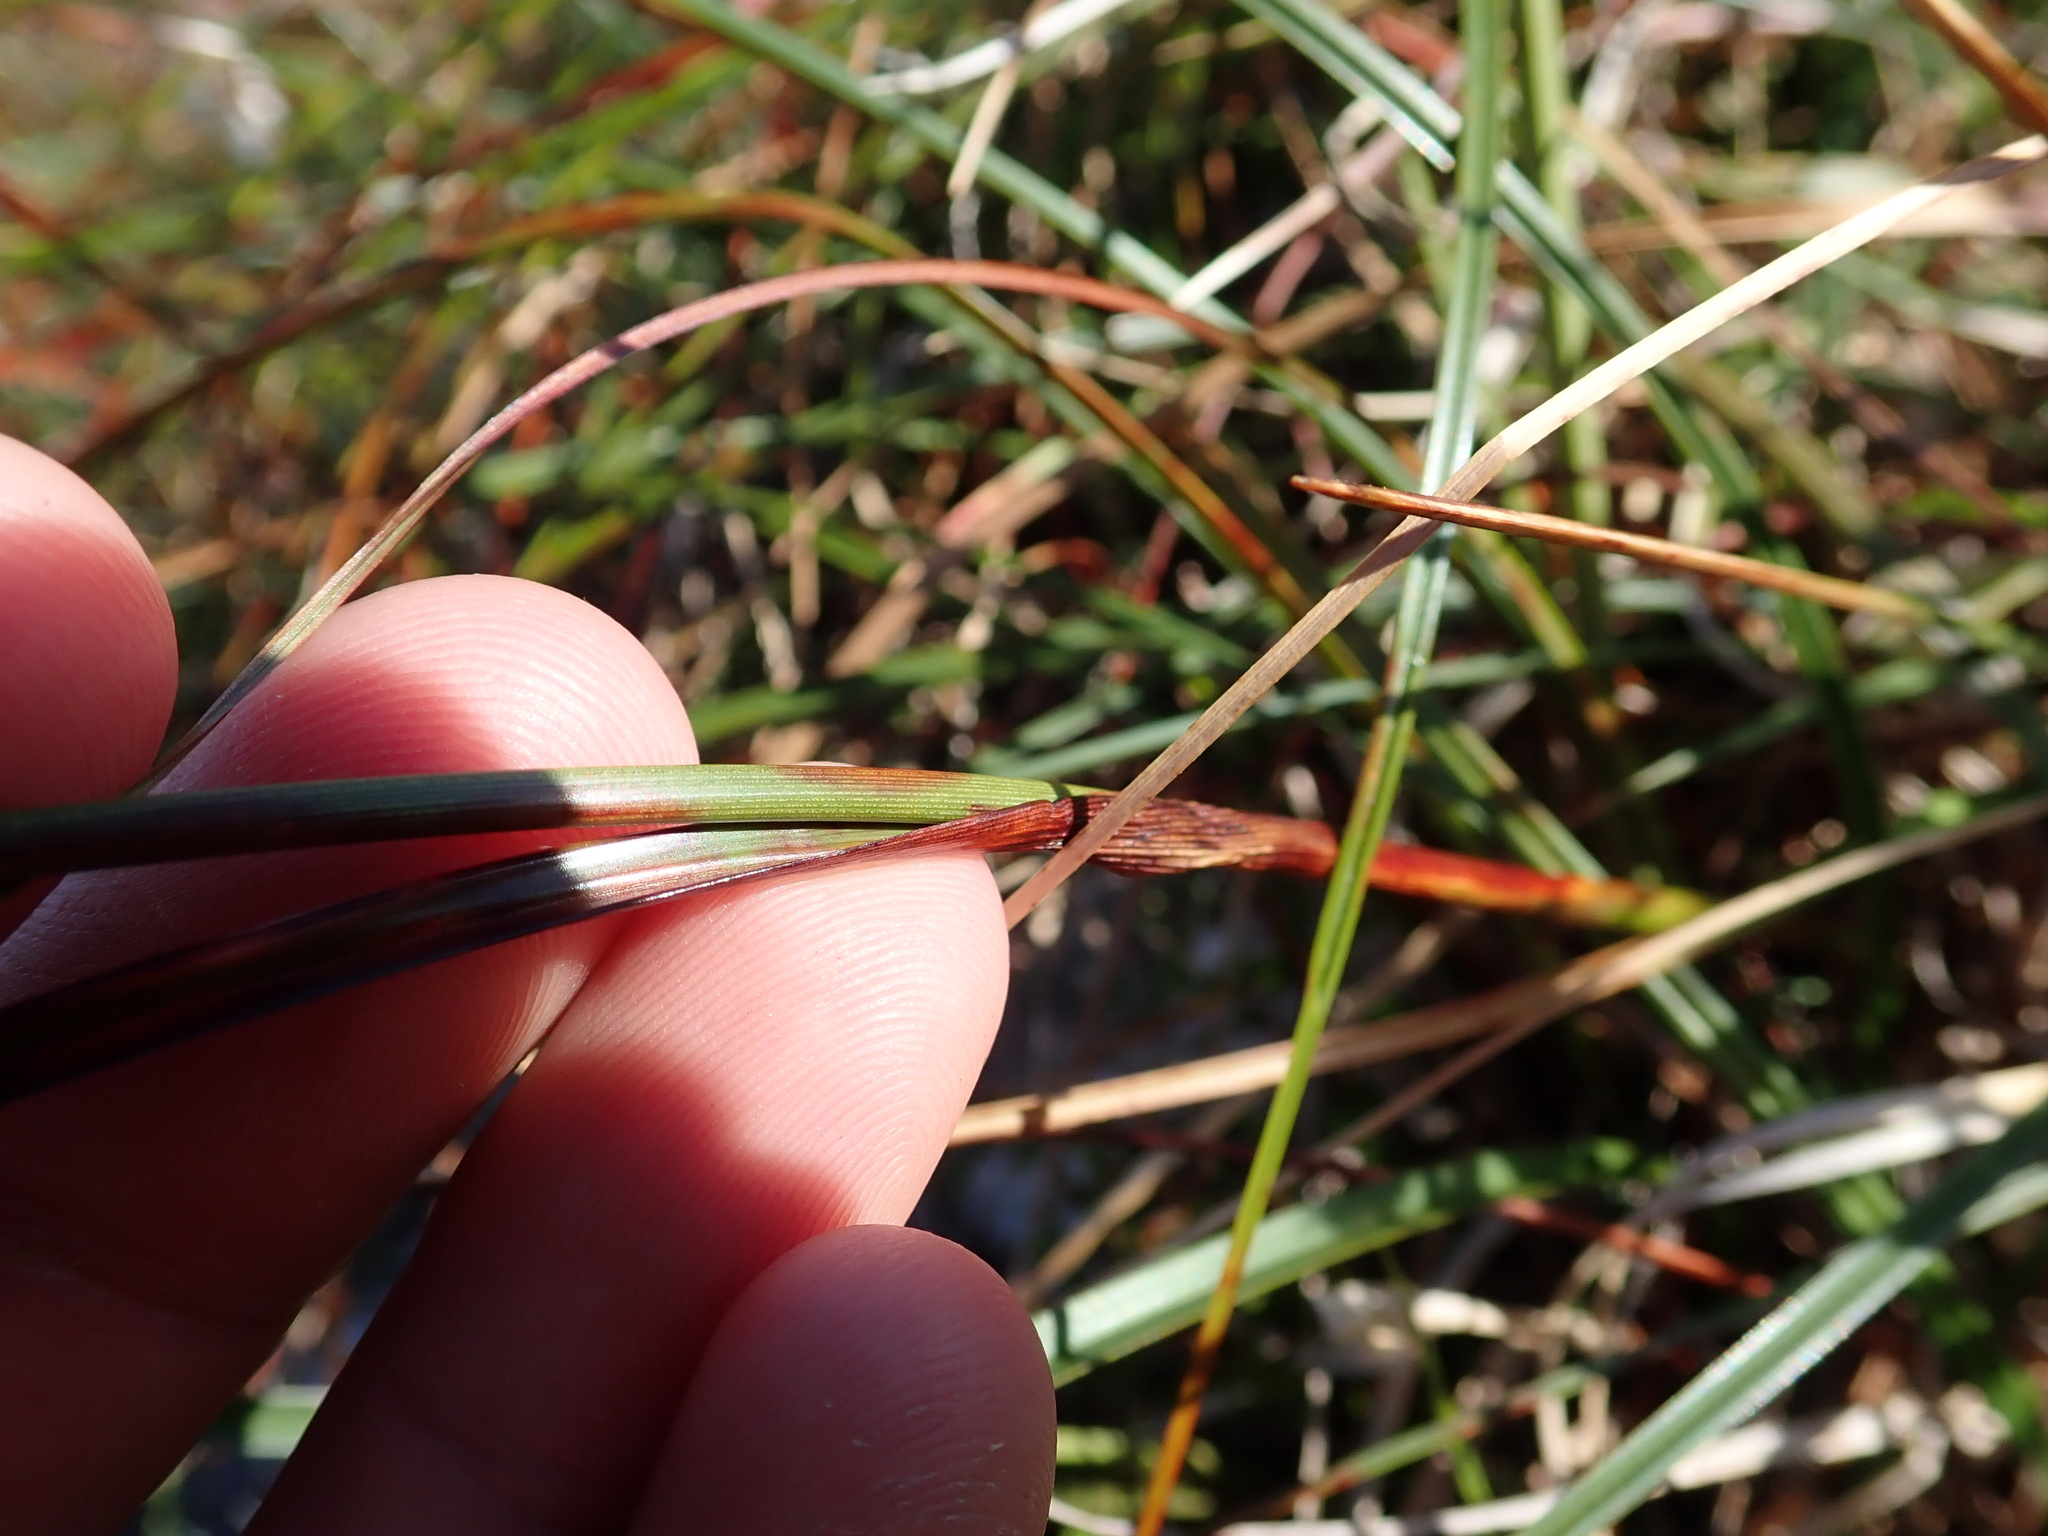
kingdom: Plantae
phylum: Tracheophyta
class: Liliopsida
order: Poales
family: Cyperaceae
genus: Eriophorum
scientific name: Eriophorum angustifolium
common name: Common cottongrass
